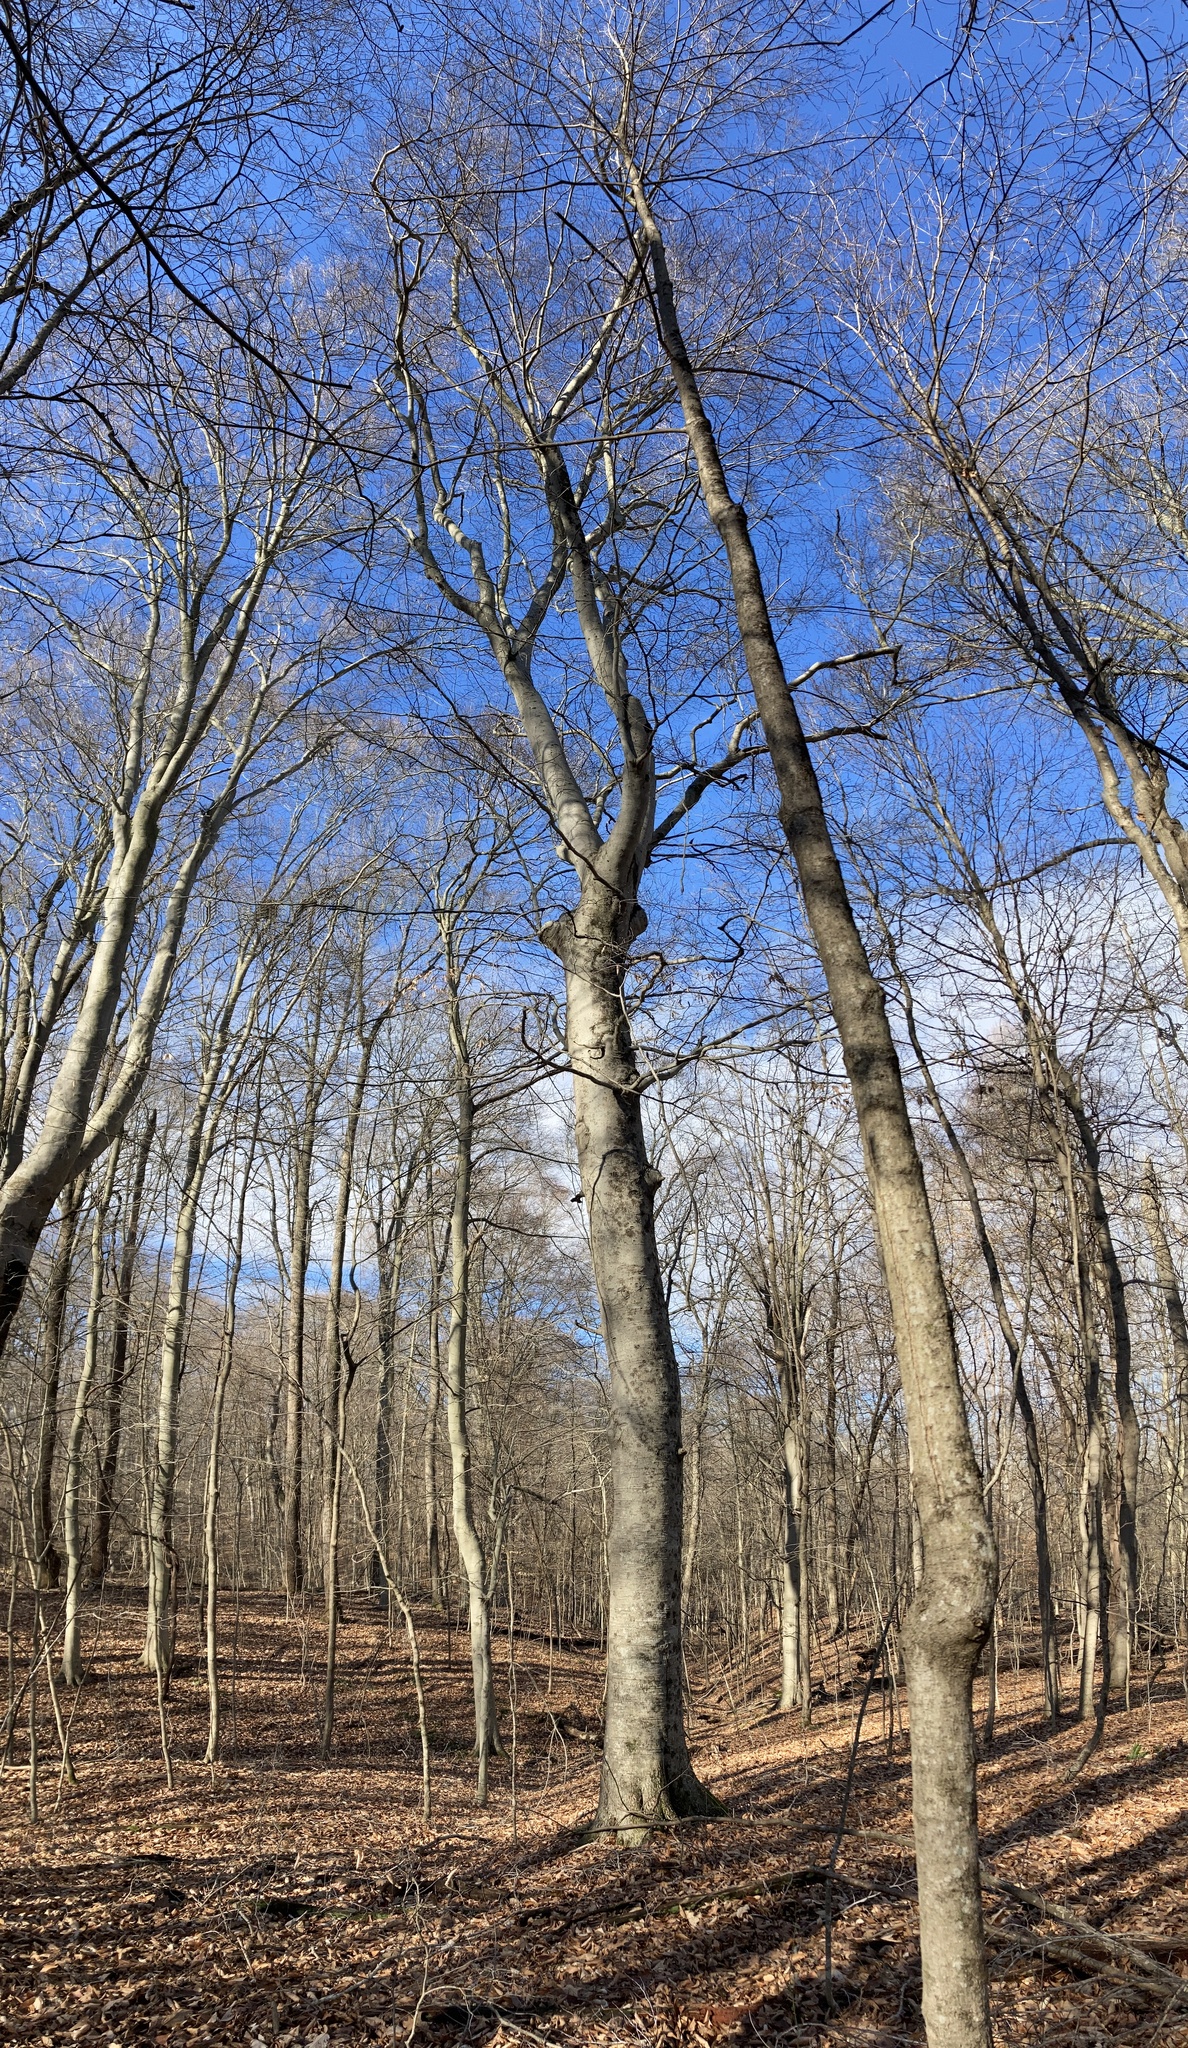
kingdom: Plantae
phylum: Tracheophyta
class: Magnoliopsida
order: Fagales
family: Fagaceae
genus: Fagus
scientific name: Fagus grandifolia
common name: American beech
